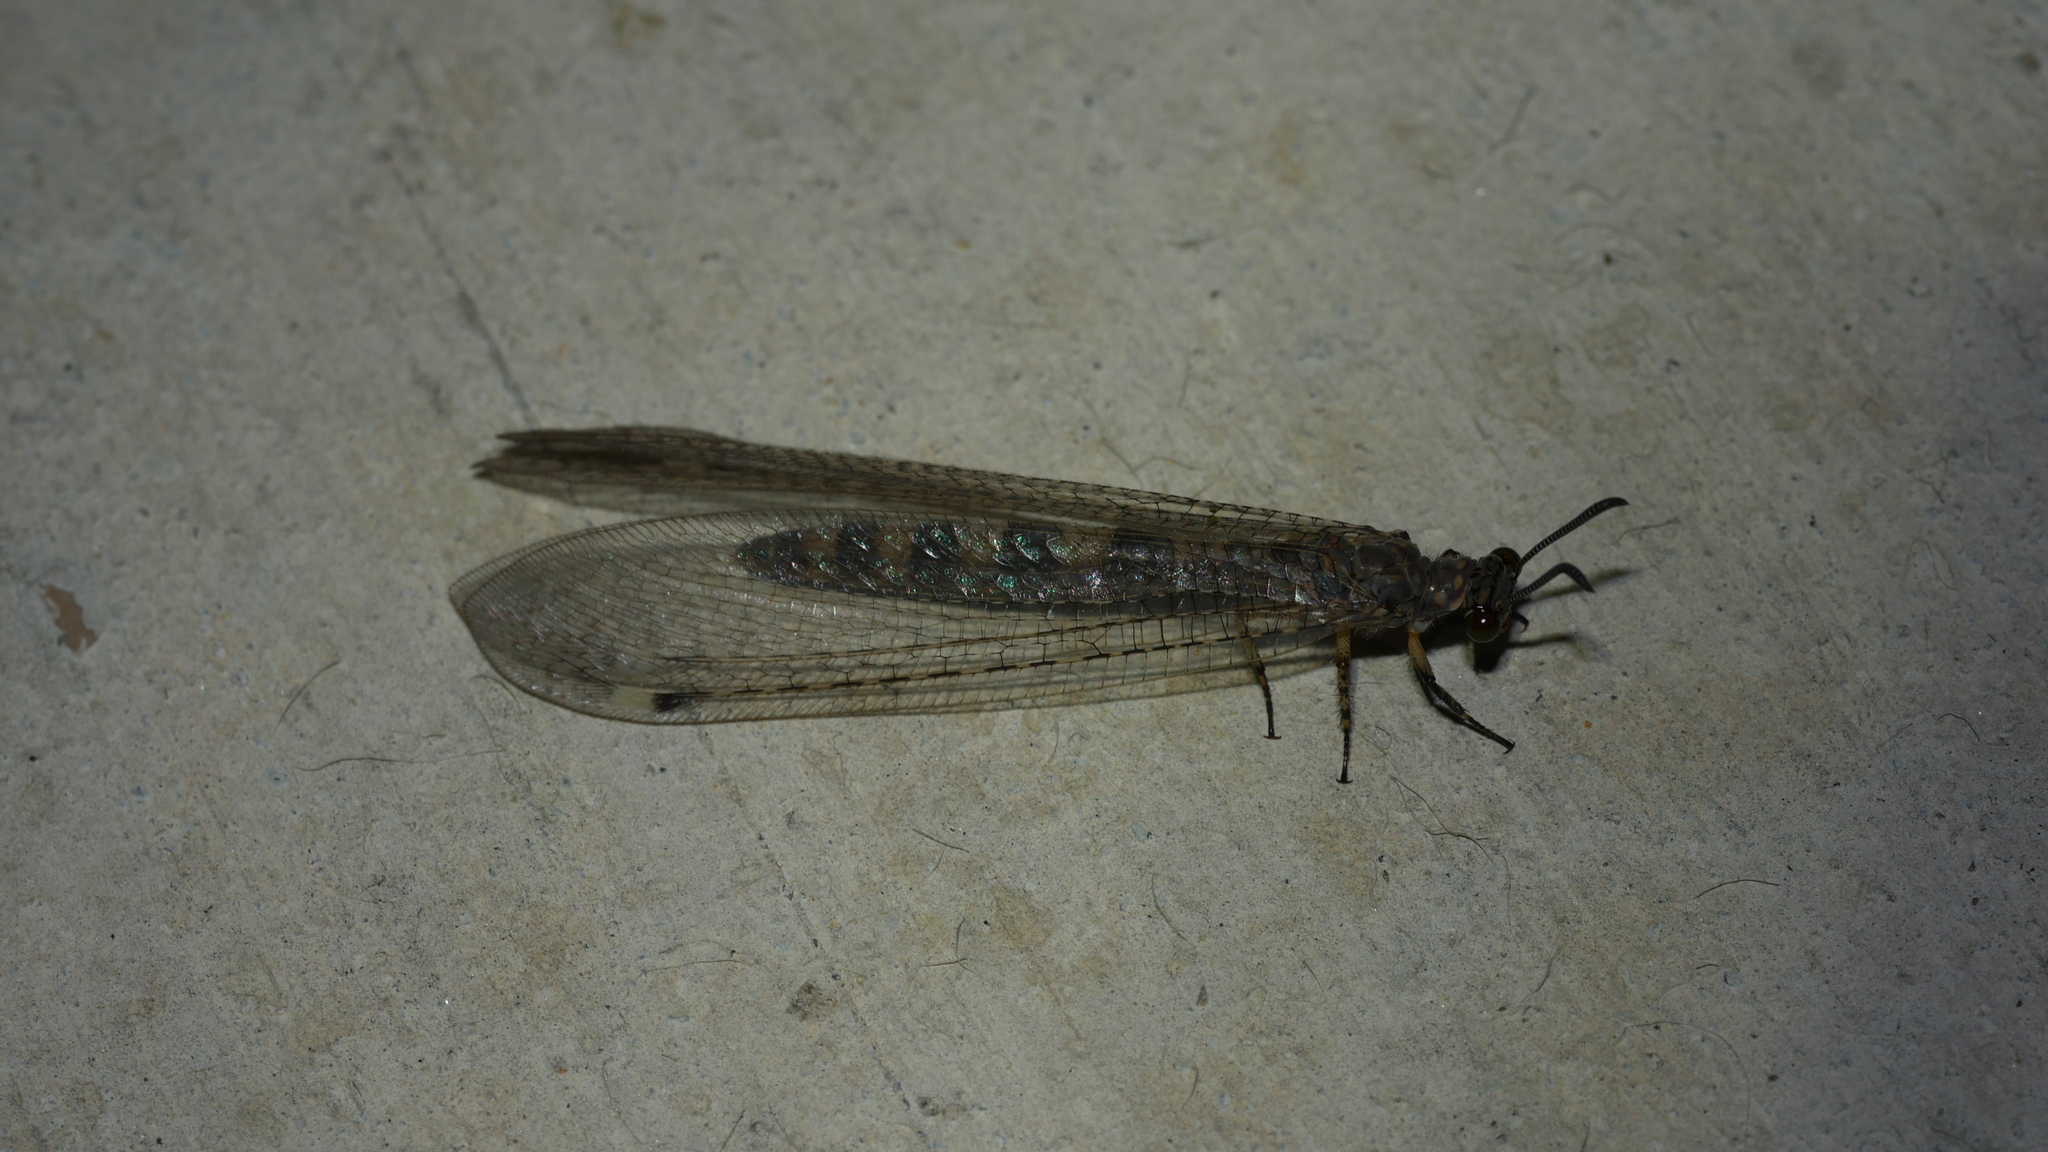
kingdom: Animalia
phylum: Arthropoda
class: Insecta
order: Neuroptera
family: Myrmeleontidae
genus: Myrmeleon
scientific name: Myrmeleon immaculatus
